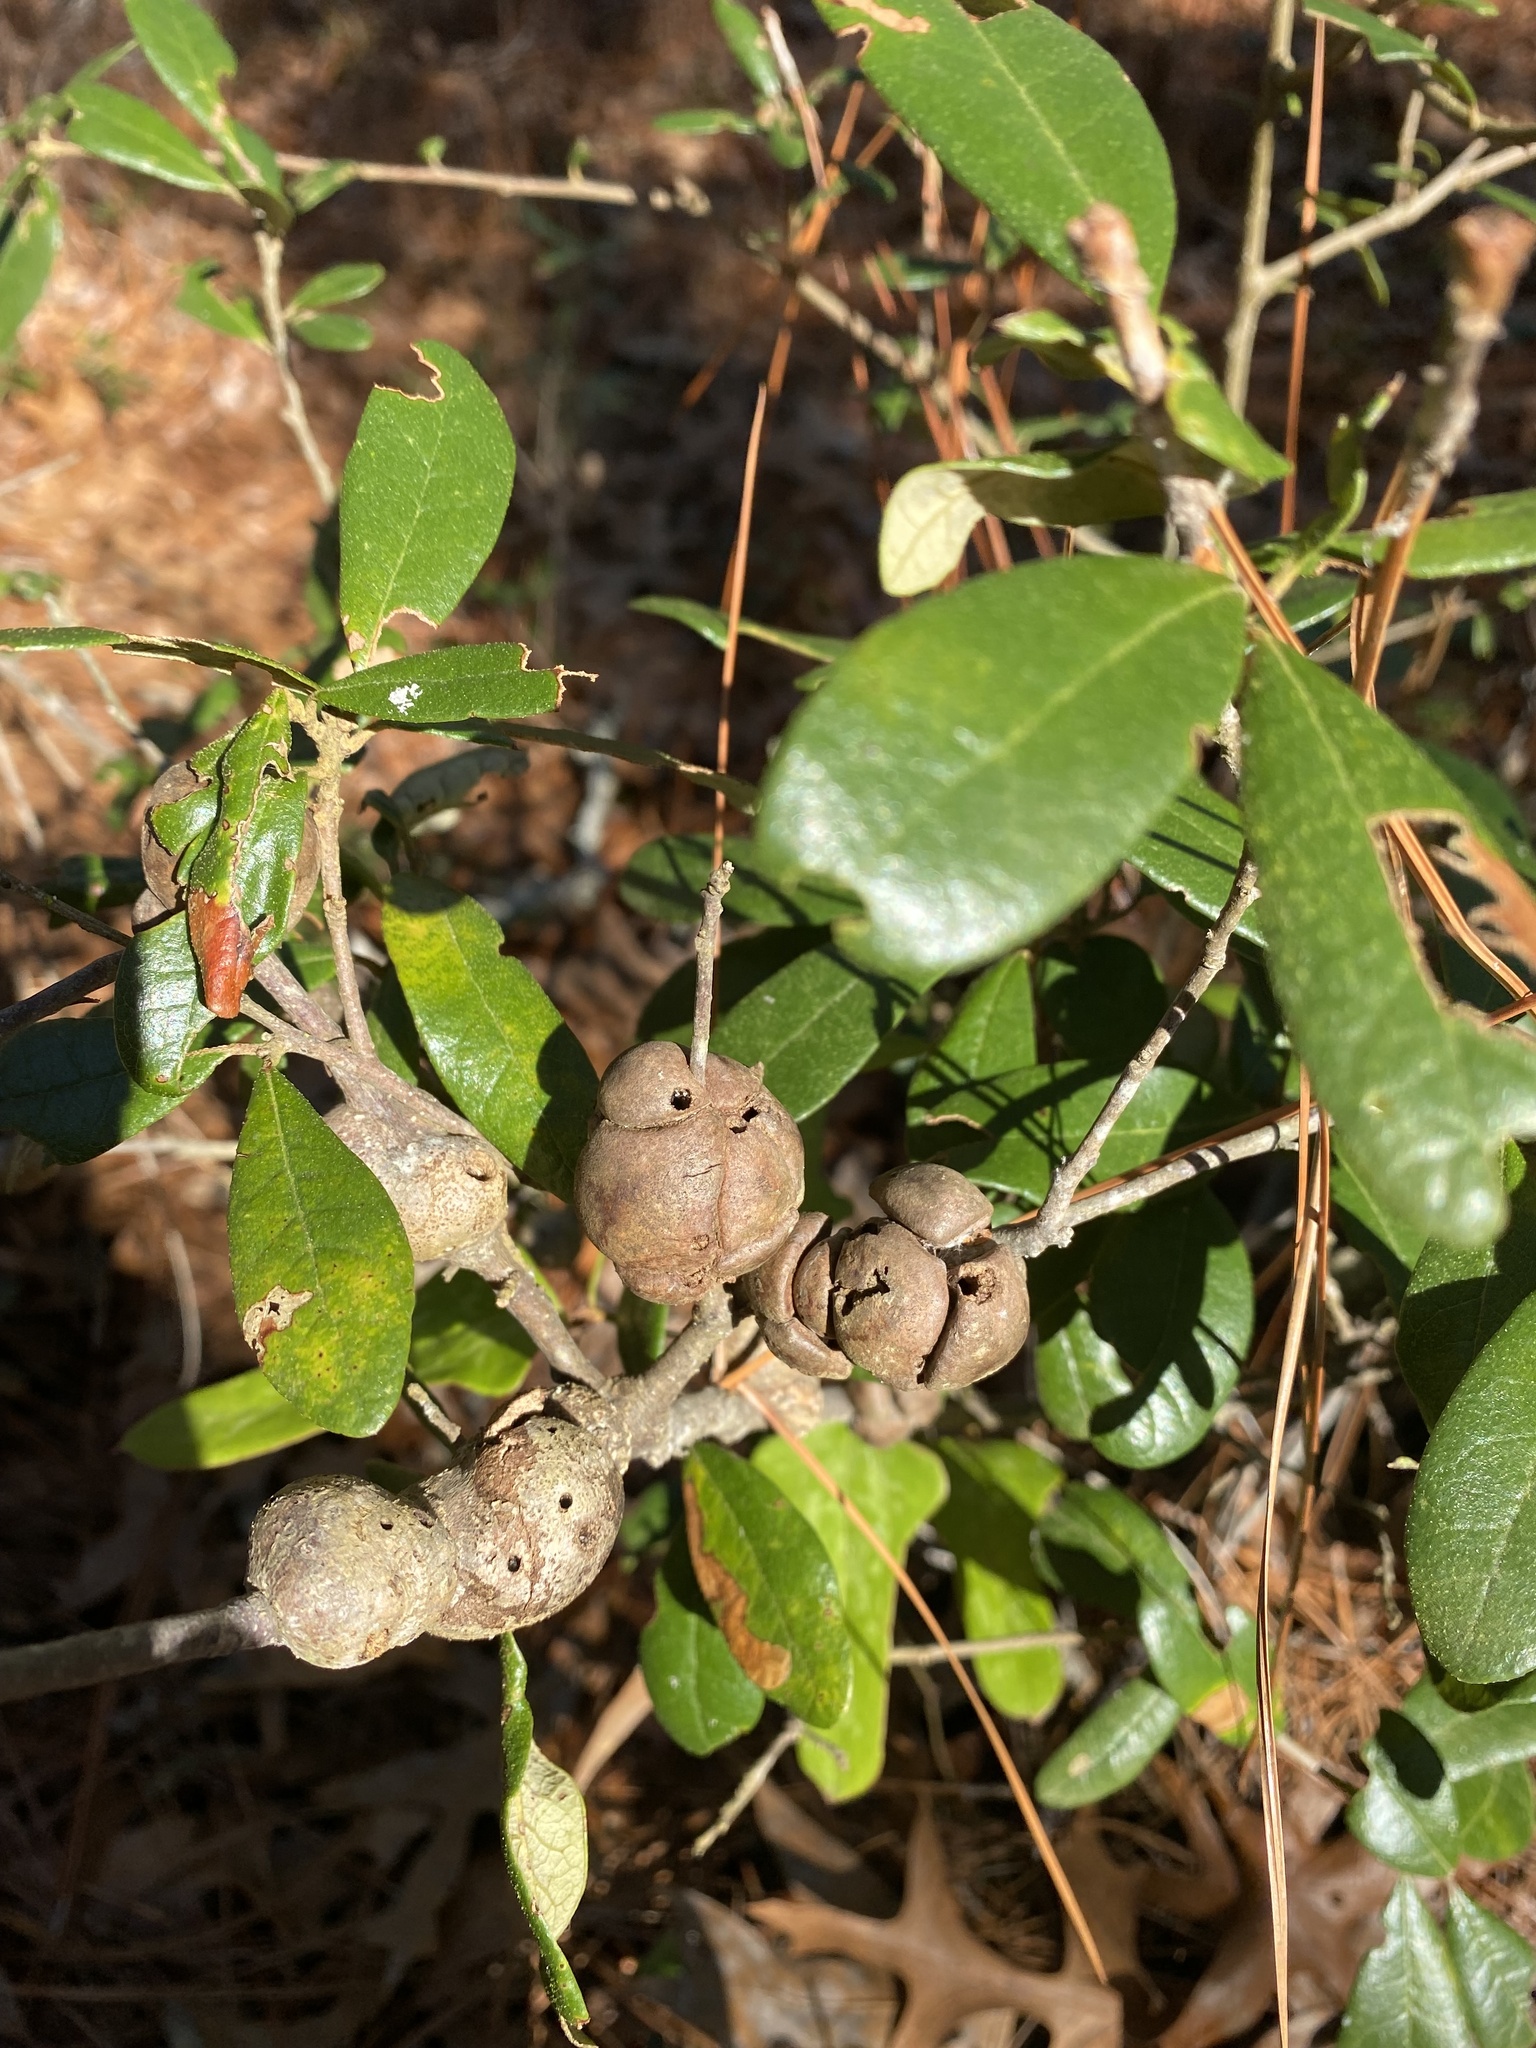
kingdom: Animalia
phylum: Arthropoda
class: Insecta
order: Hymenoptera
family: Cynipidae
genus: Callirhytis
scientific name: Callirhytis
